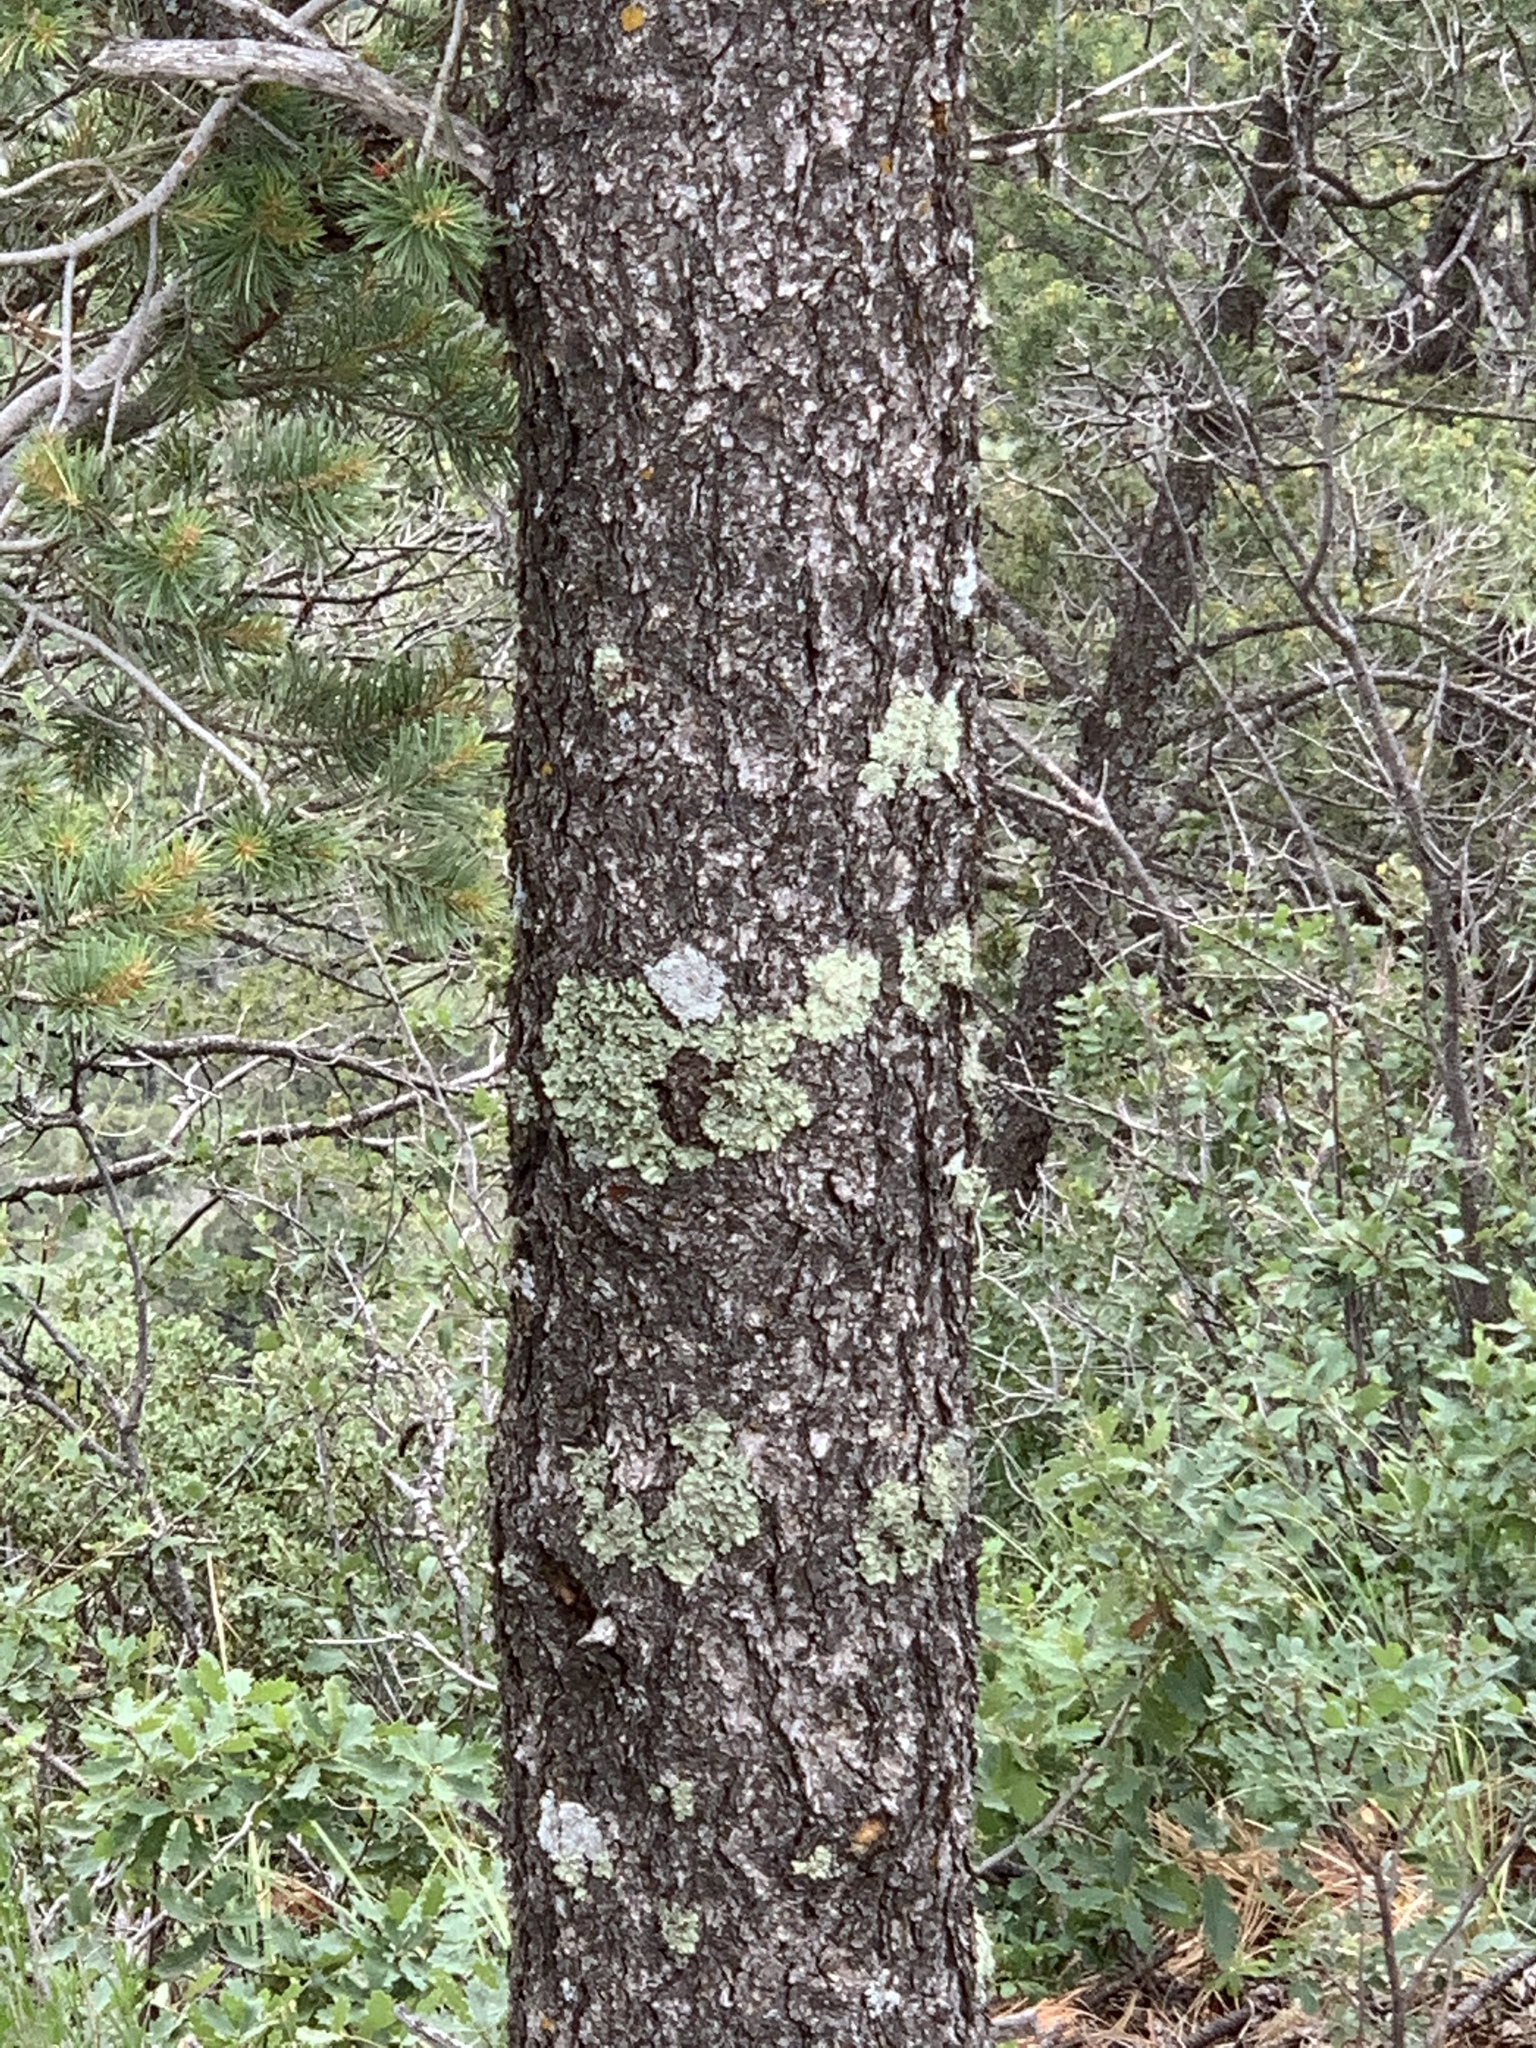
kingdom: Plantae
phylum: Tracheophyta
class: Pinopsida
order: Pinales
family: Pinaceae
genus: Pinus
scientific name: Pinus edulis
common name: Colorado pinyon
